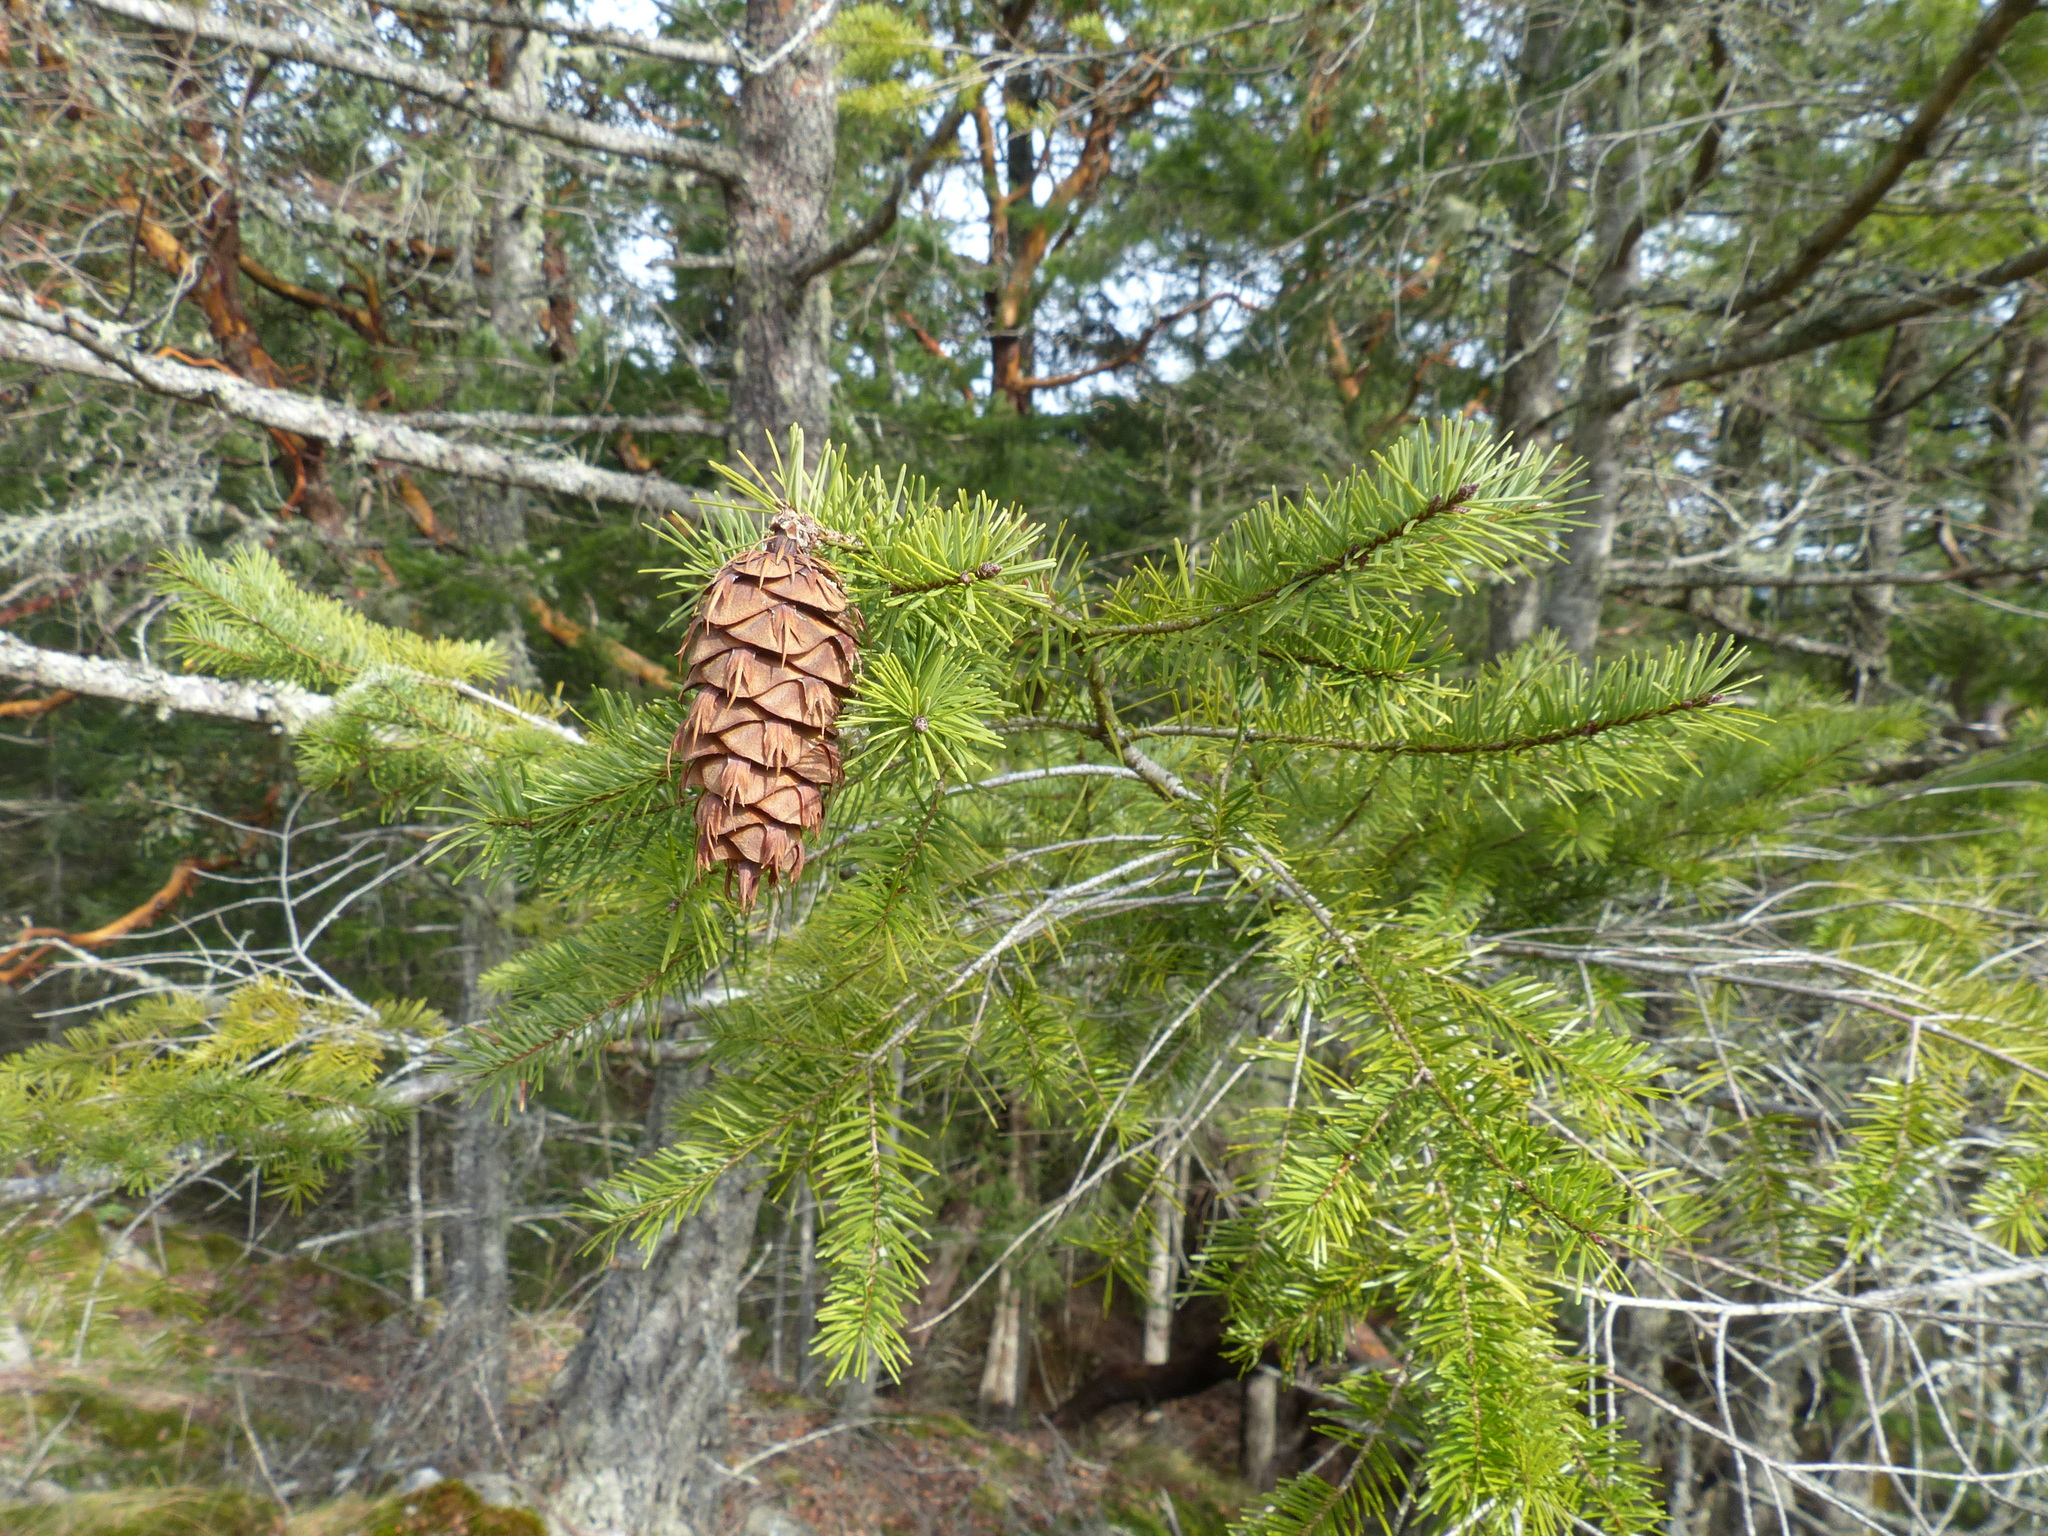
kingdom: Plantae
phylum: Tracheophyta
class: Pinopsida
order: Pinales
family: Pinaceae
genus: Pseudotsuga
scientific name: Pseudotsuga menziesii
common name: Douglas fir
